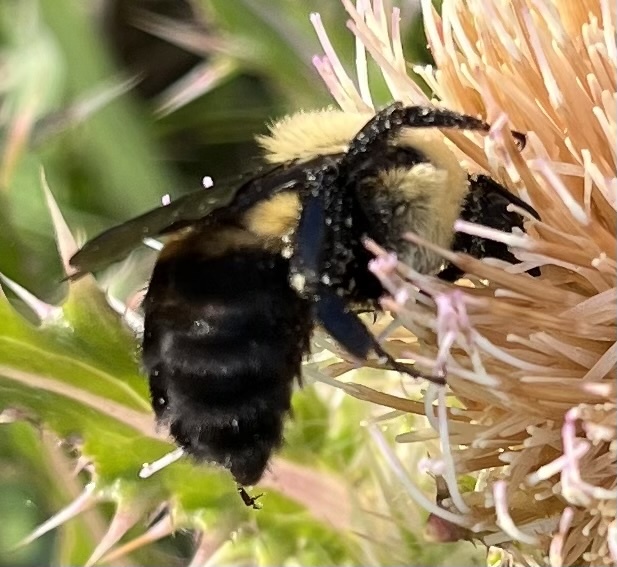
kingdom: Animalia
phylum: Arthropoda
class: Insecta
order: Hymenoptera
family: Apidae
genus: Bombus
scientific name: Bombus griseocollis
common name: Brown-belted bumble bee
